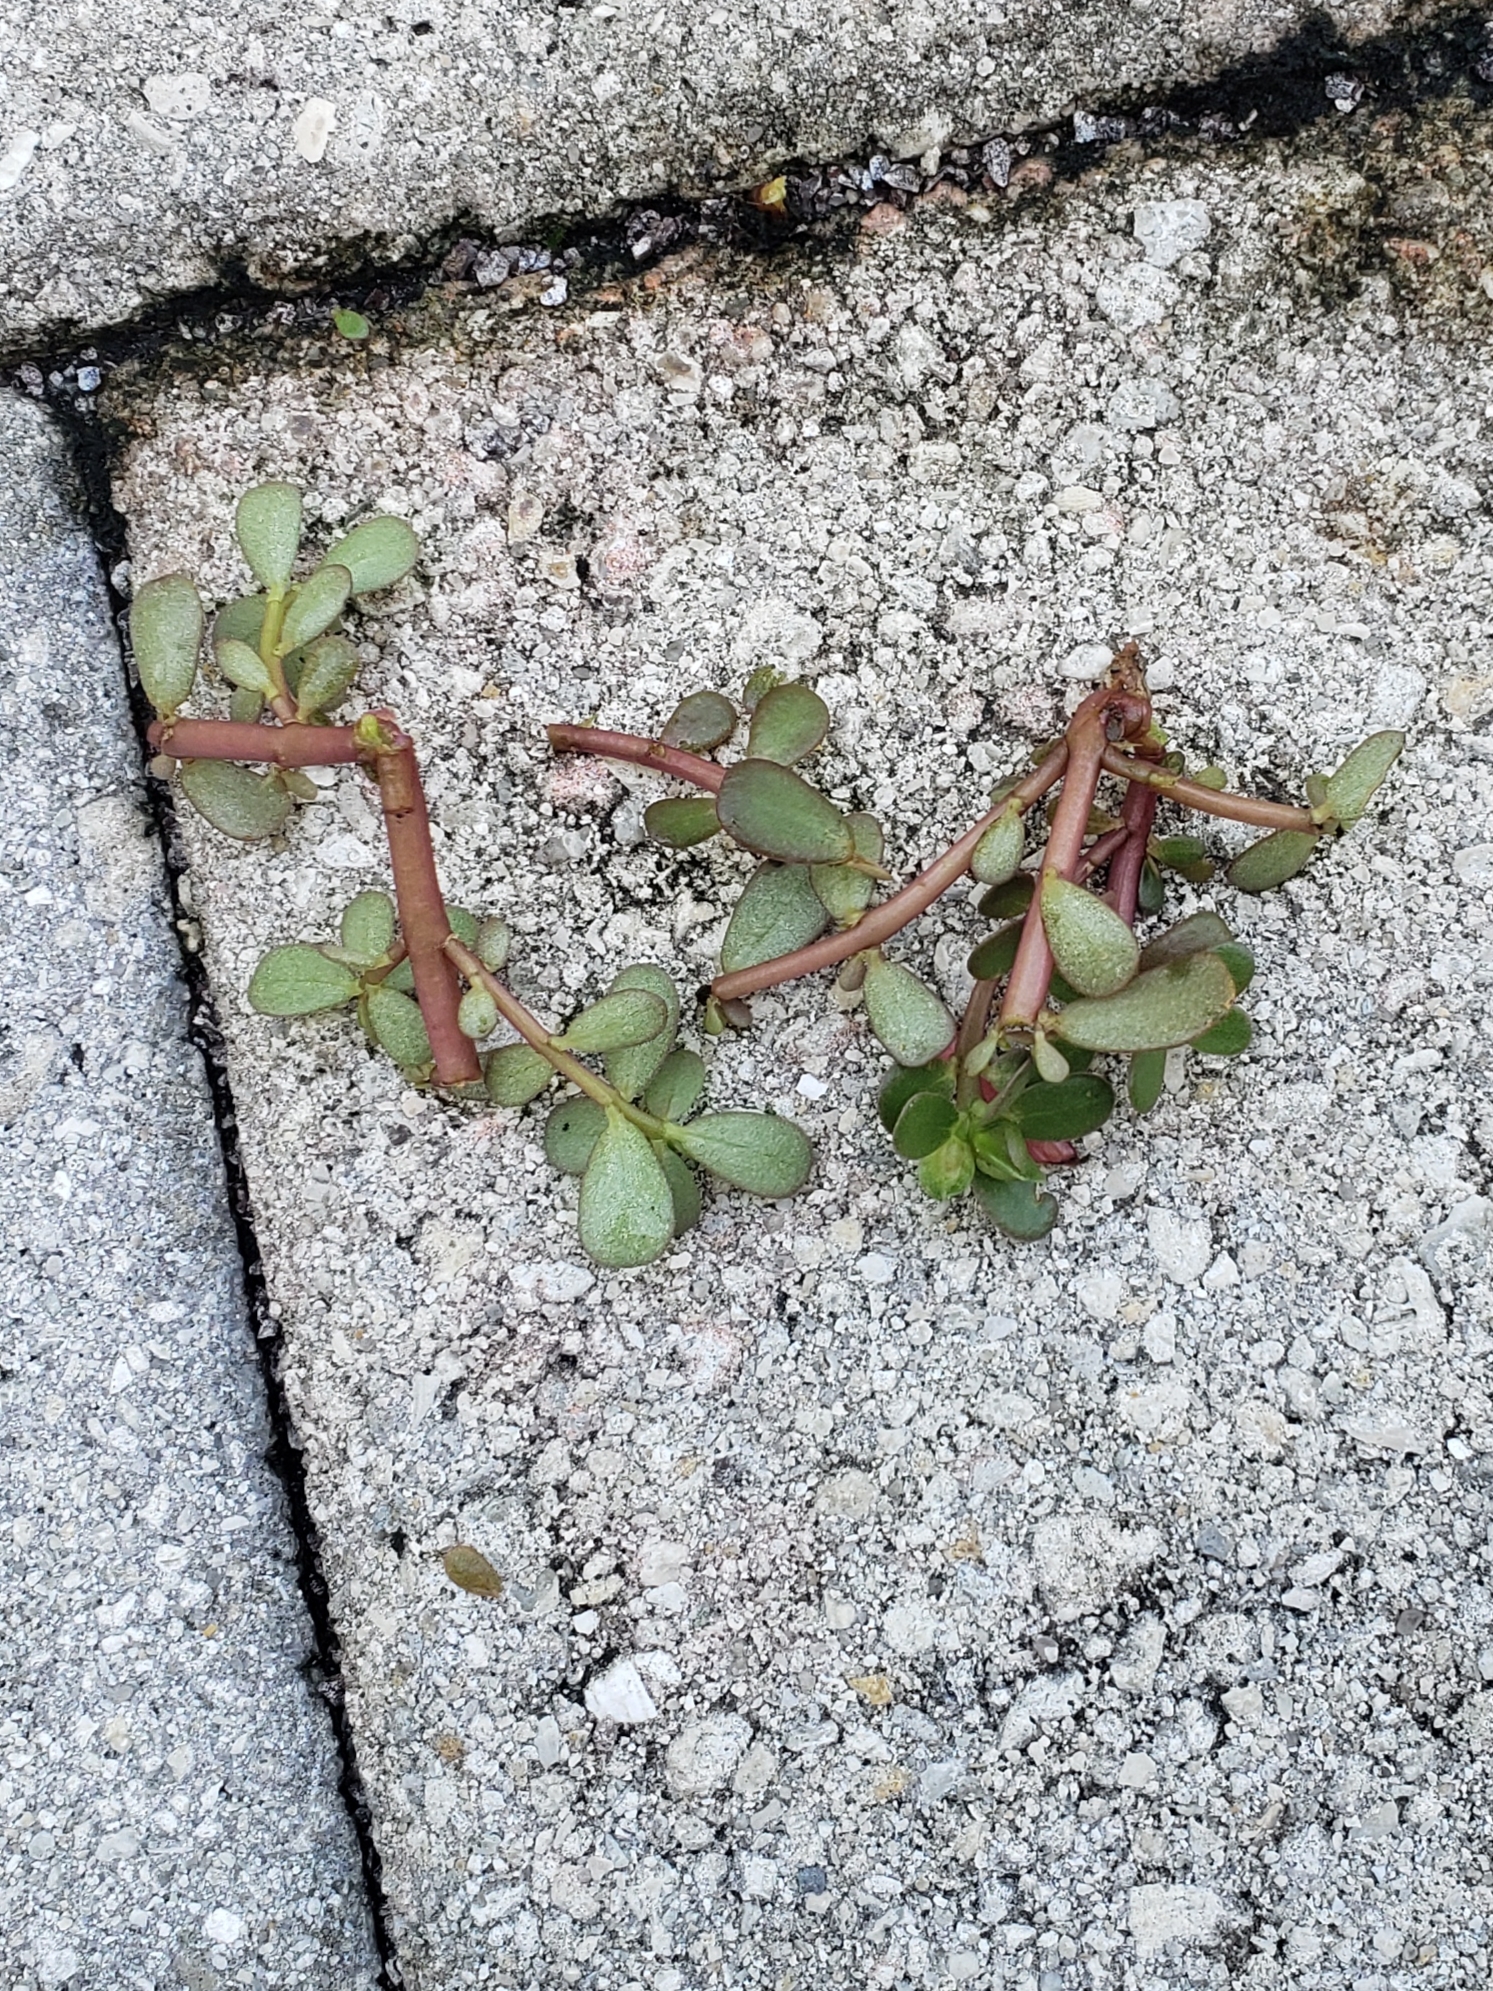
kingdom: Plantae
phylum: Tracheophyta
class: Magnoliopsida
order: Caryophyllales
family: Portulacaceae
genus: Portulaca
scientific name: Portulaca oleracea
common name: Common purslane
